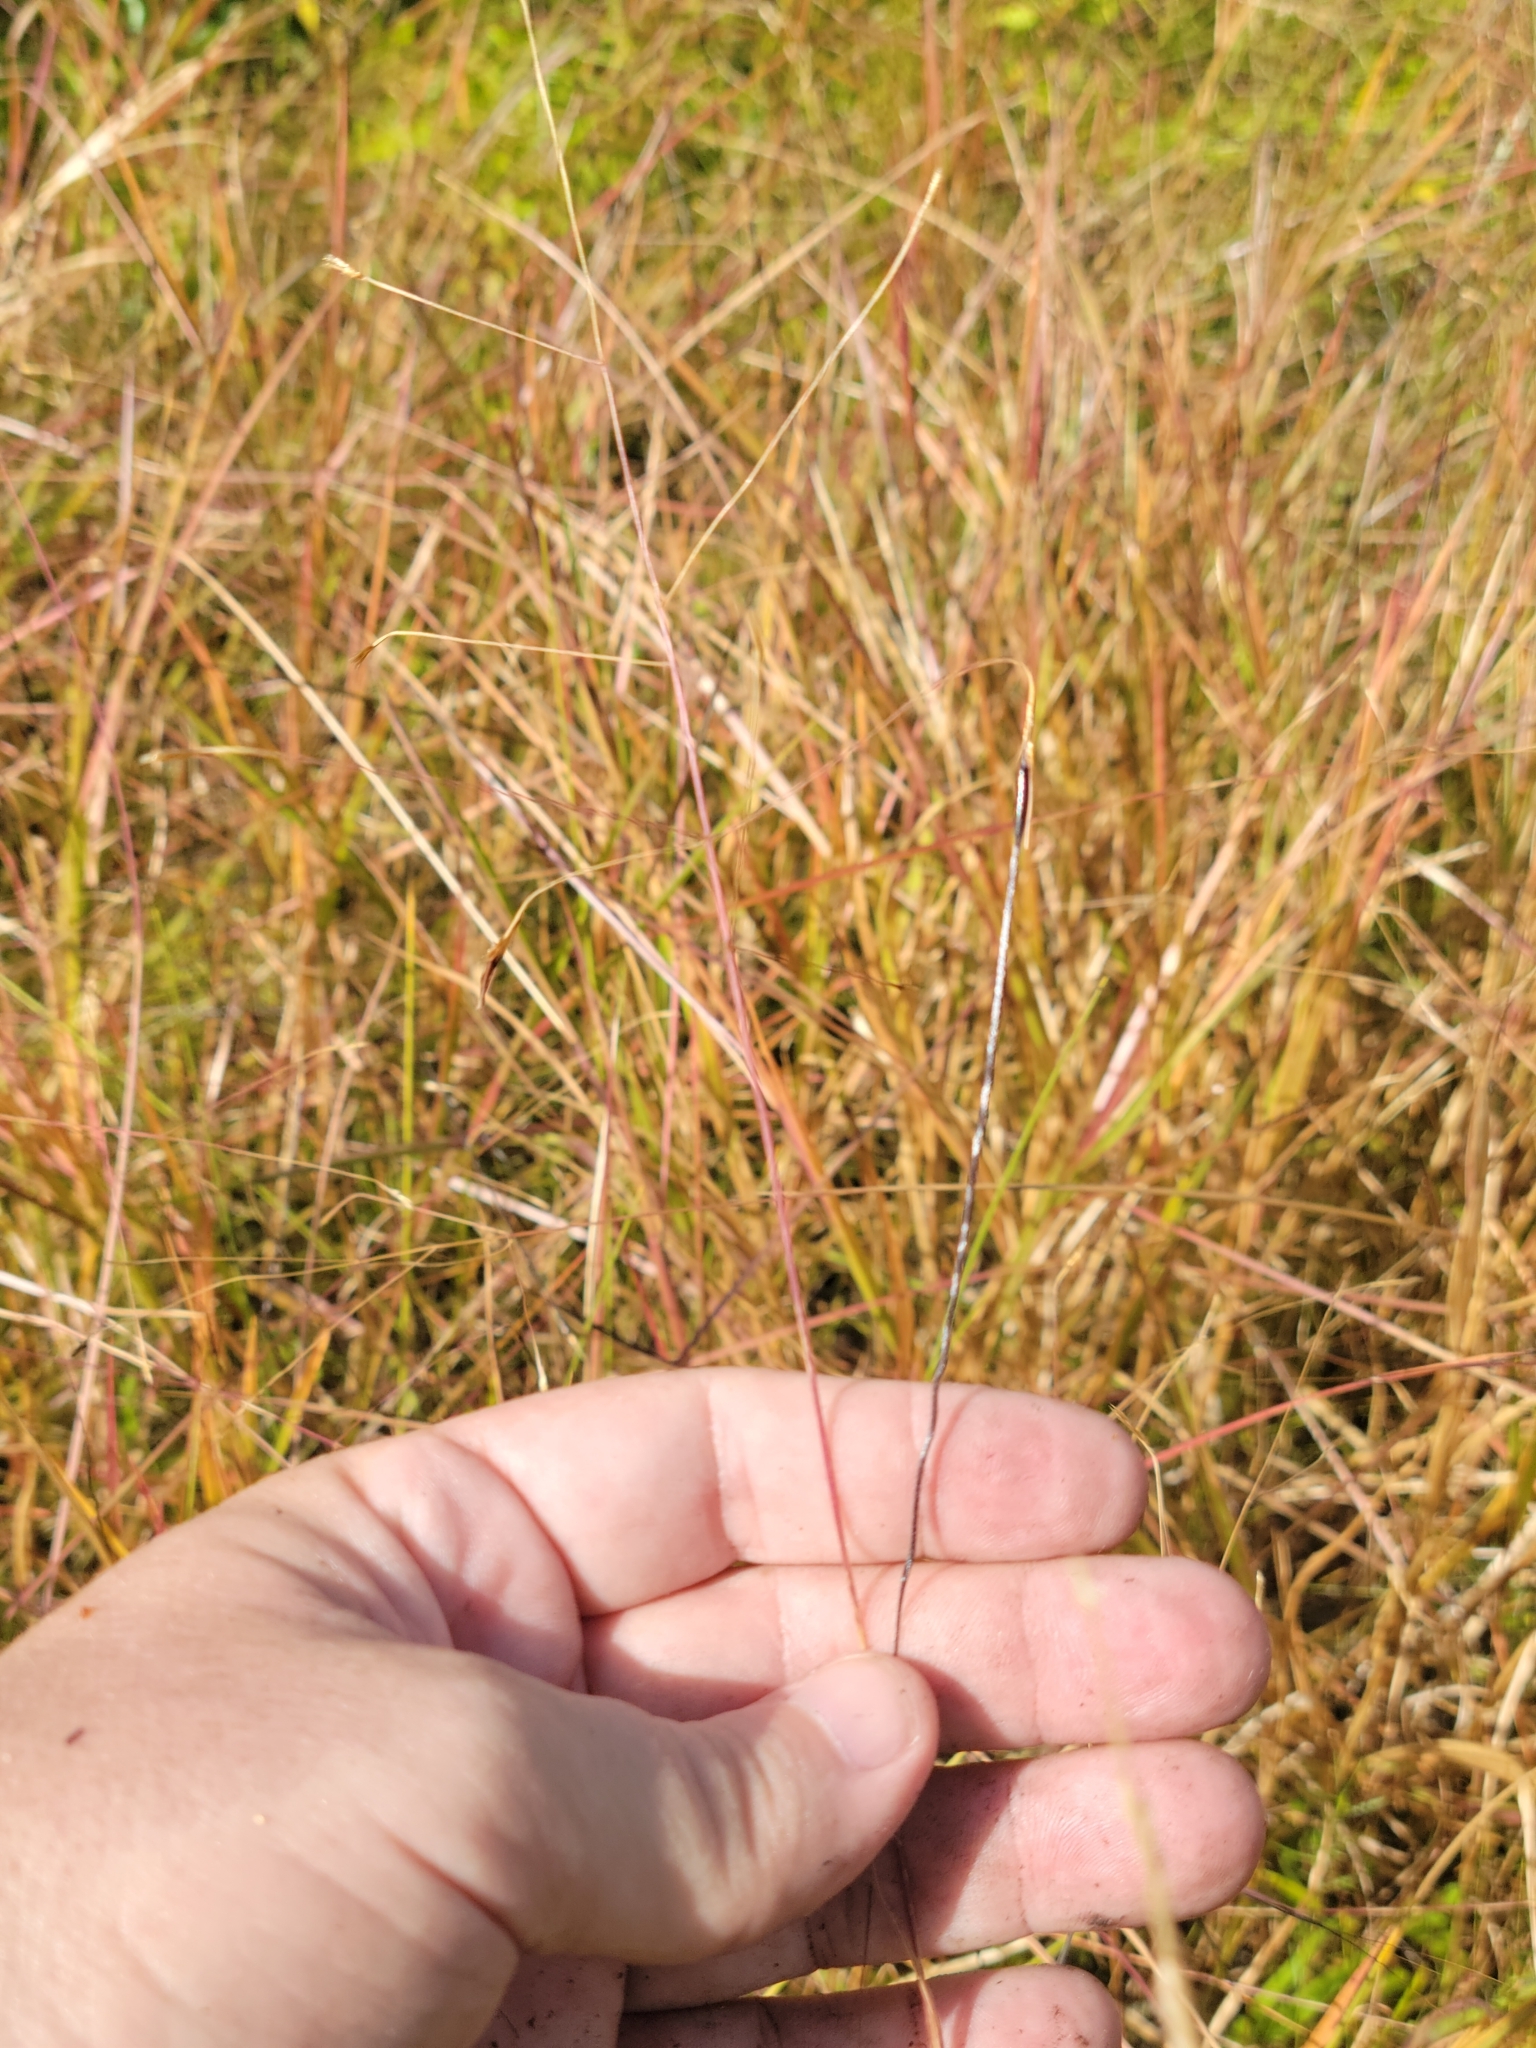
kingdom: Plantae
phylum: Tracheophyta
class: Liliopsida
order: Poales
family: Poaceae
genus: Chrysopogon
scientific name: Chrysopogon pauciflorus
